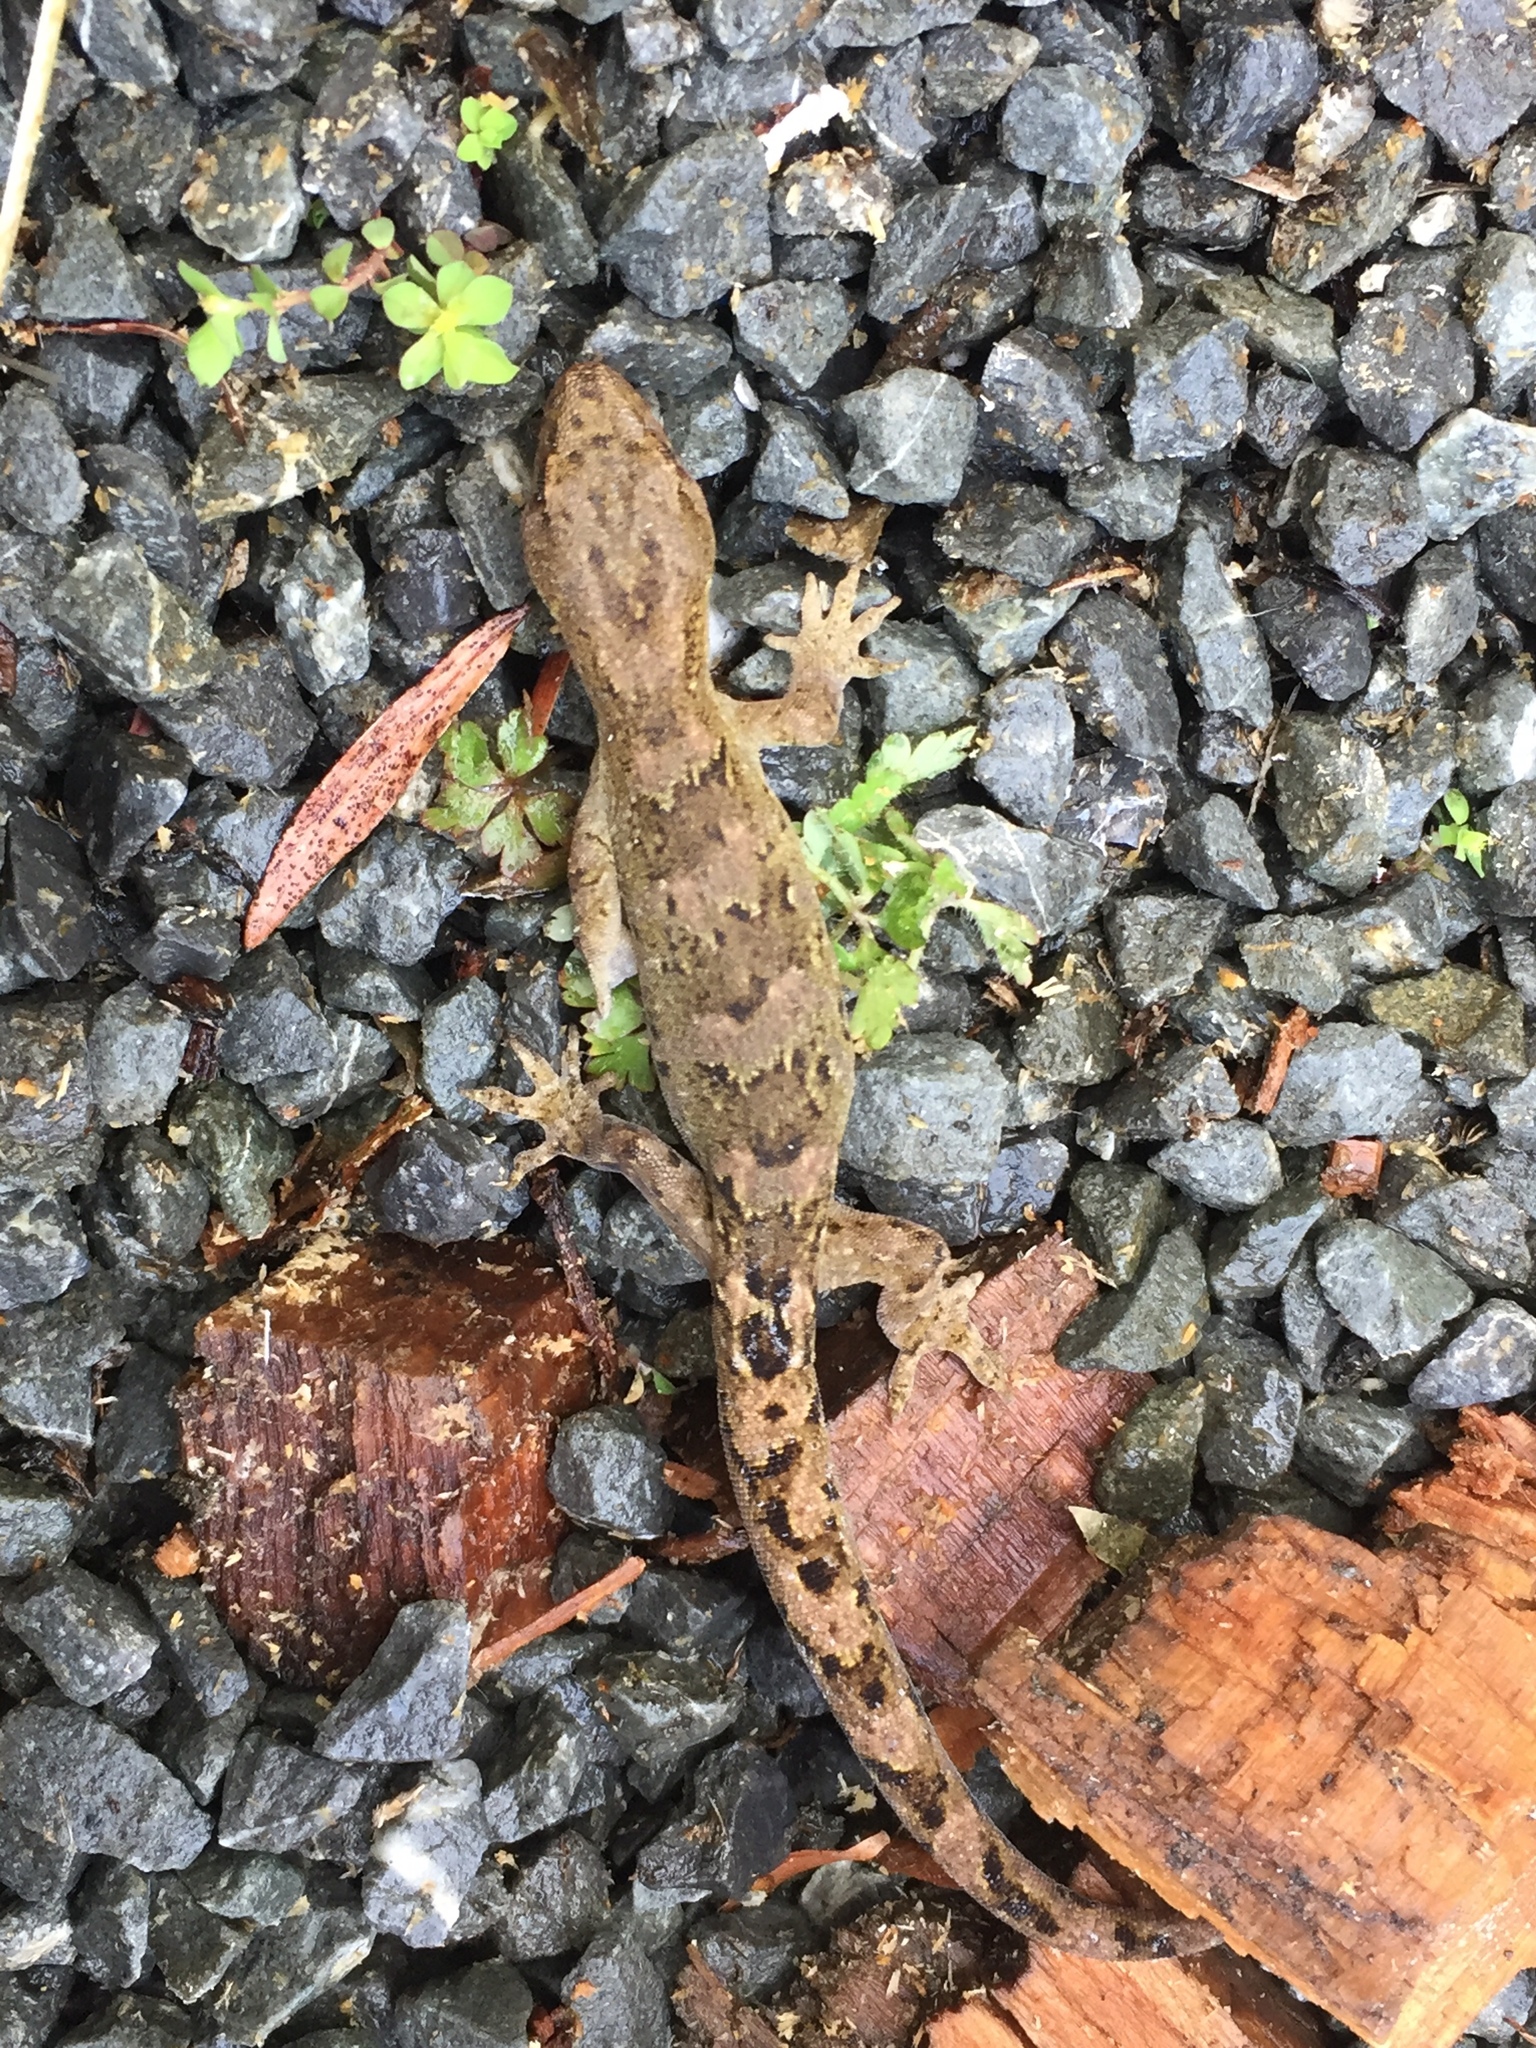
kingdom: Animalia
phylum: Chordata
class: Squamata
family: Diplodactylidae
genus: Woodworthia
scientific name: Woodworthia maculata
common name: Raukawa gecko
